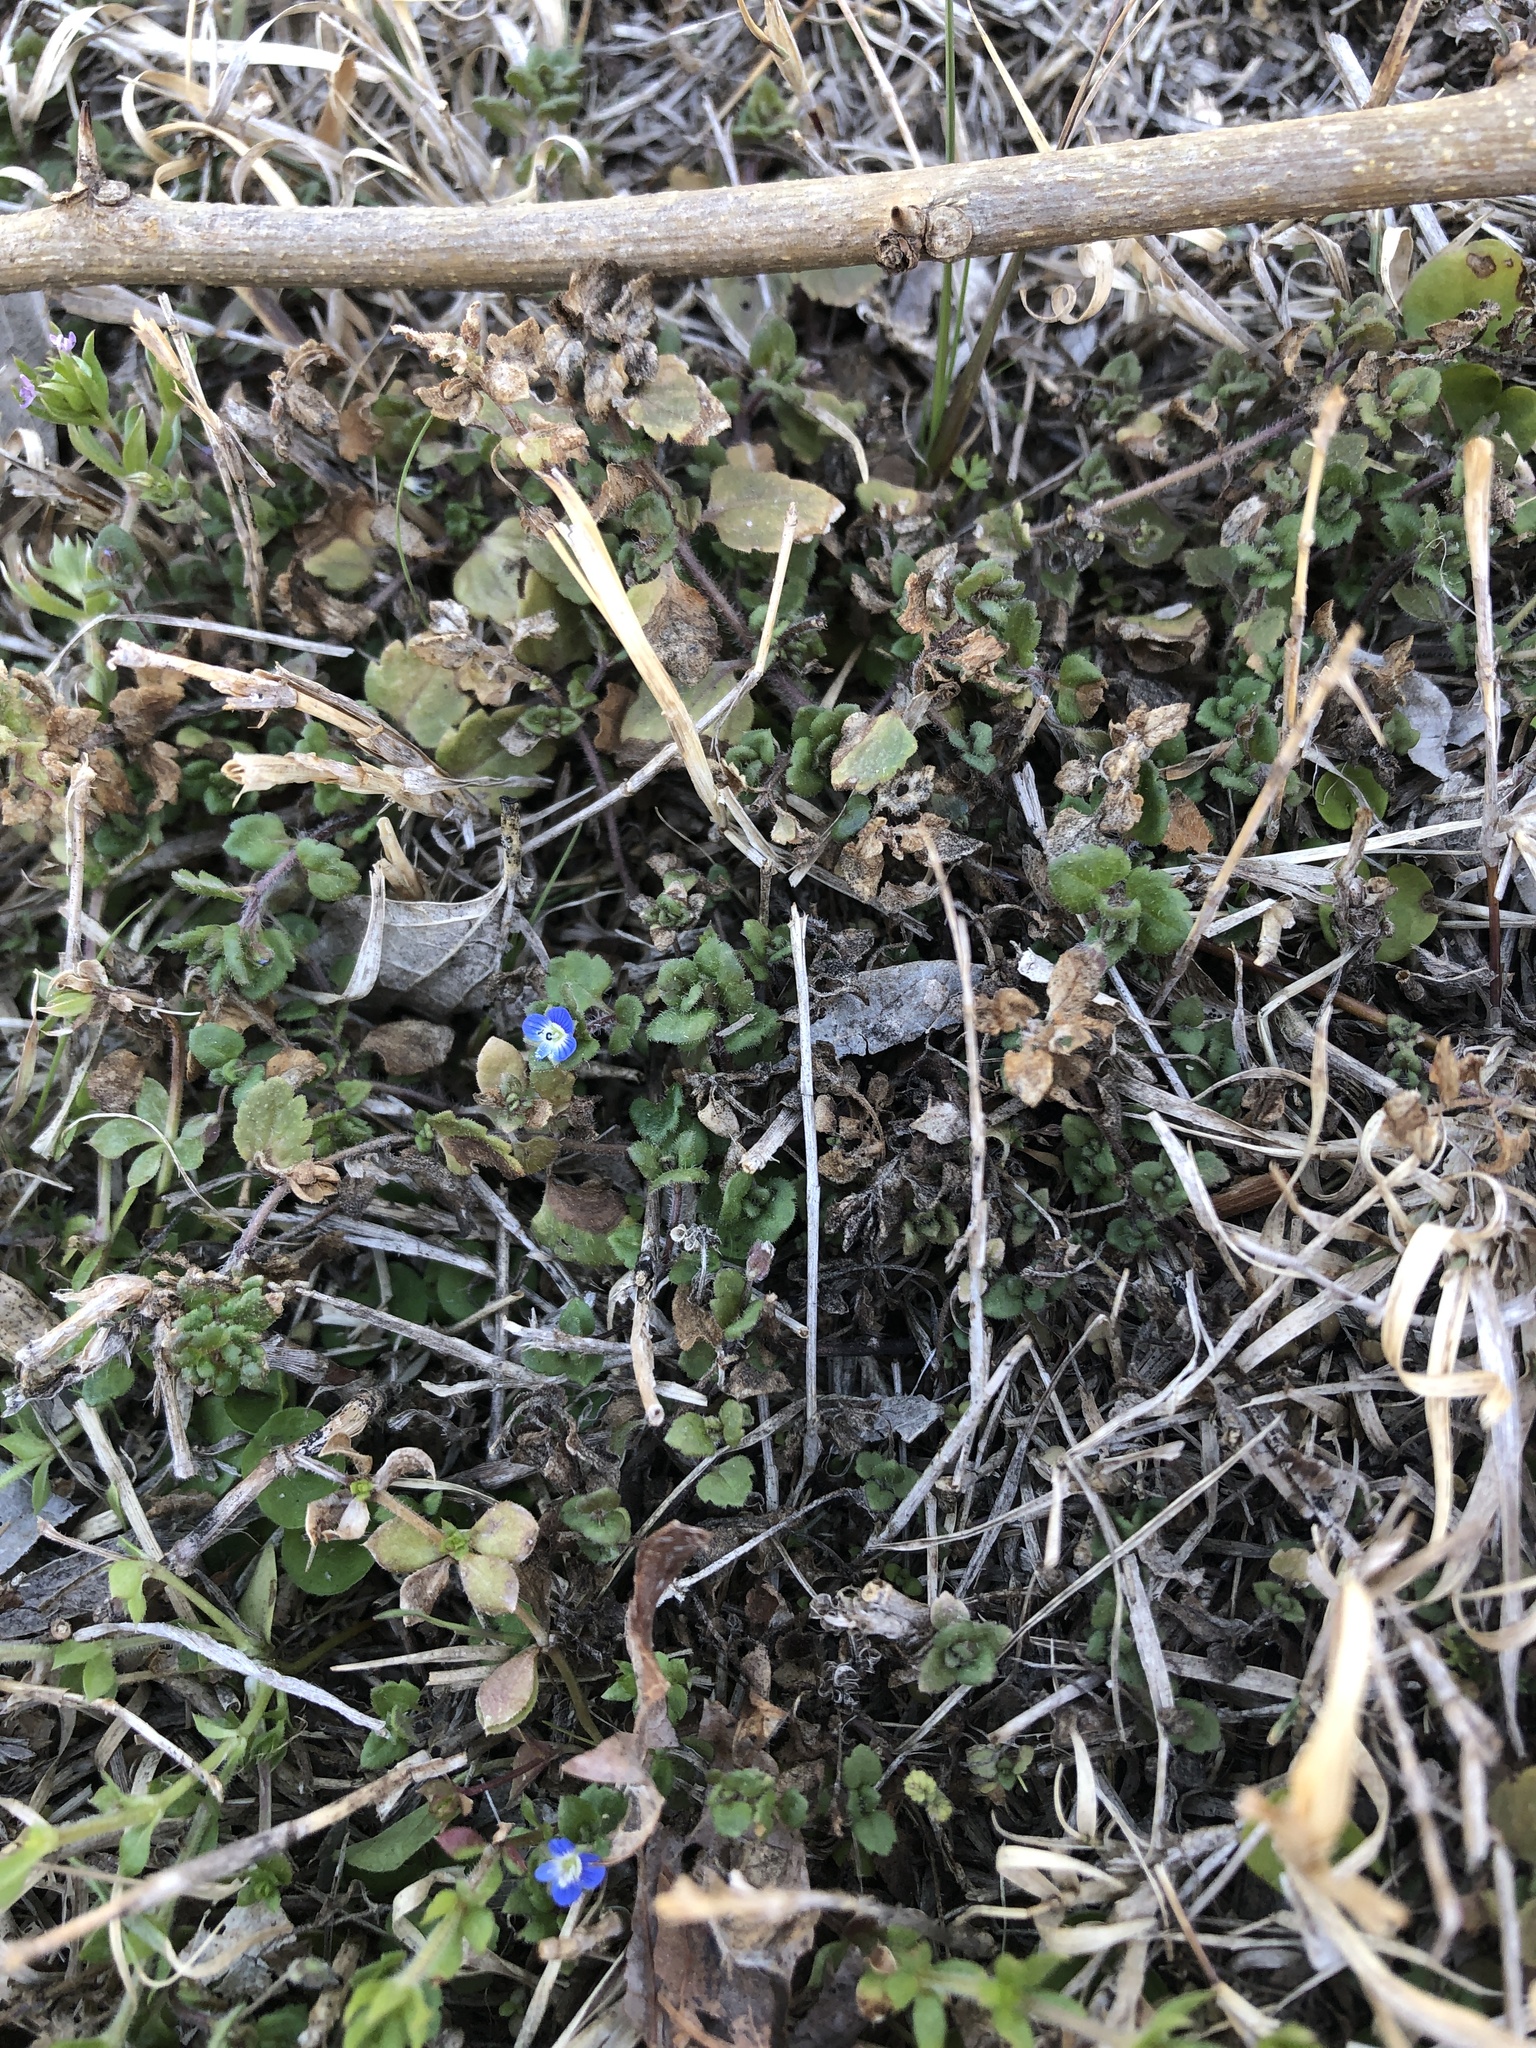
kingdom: Plantae
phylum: Tracheophyta
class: Magnoliopsida
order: Lamiales
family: Plantaginaceae
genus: Veronica
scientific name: Veronica polita
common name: Grey field-speedwell
